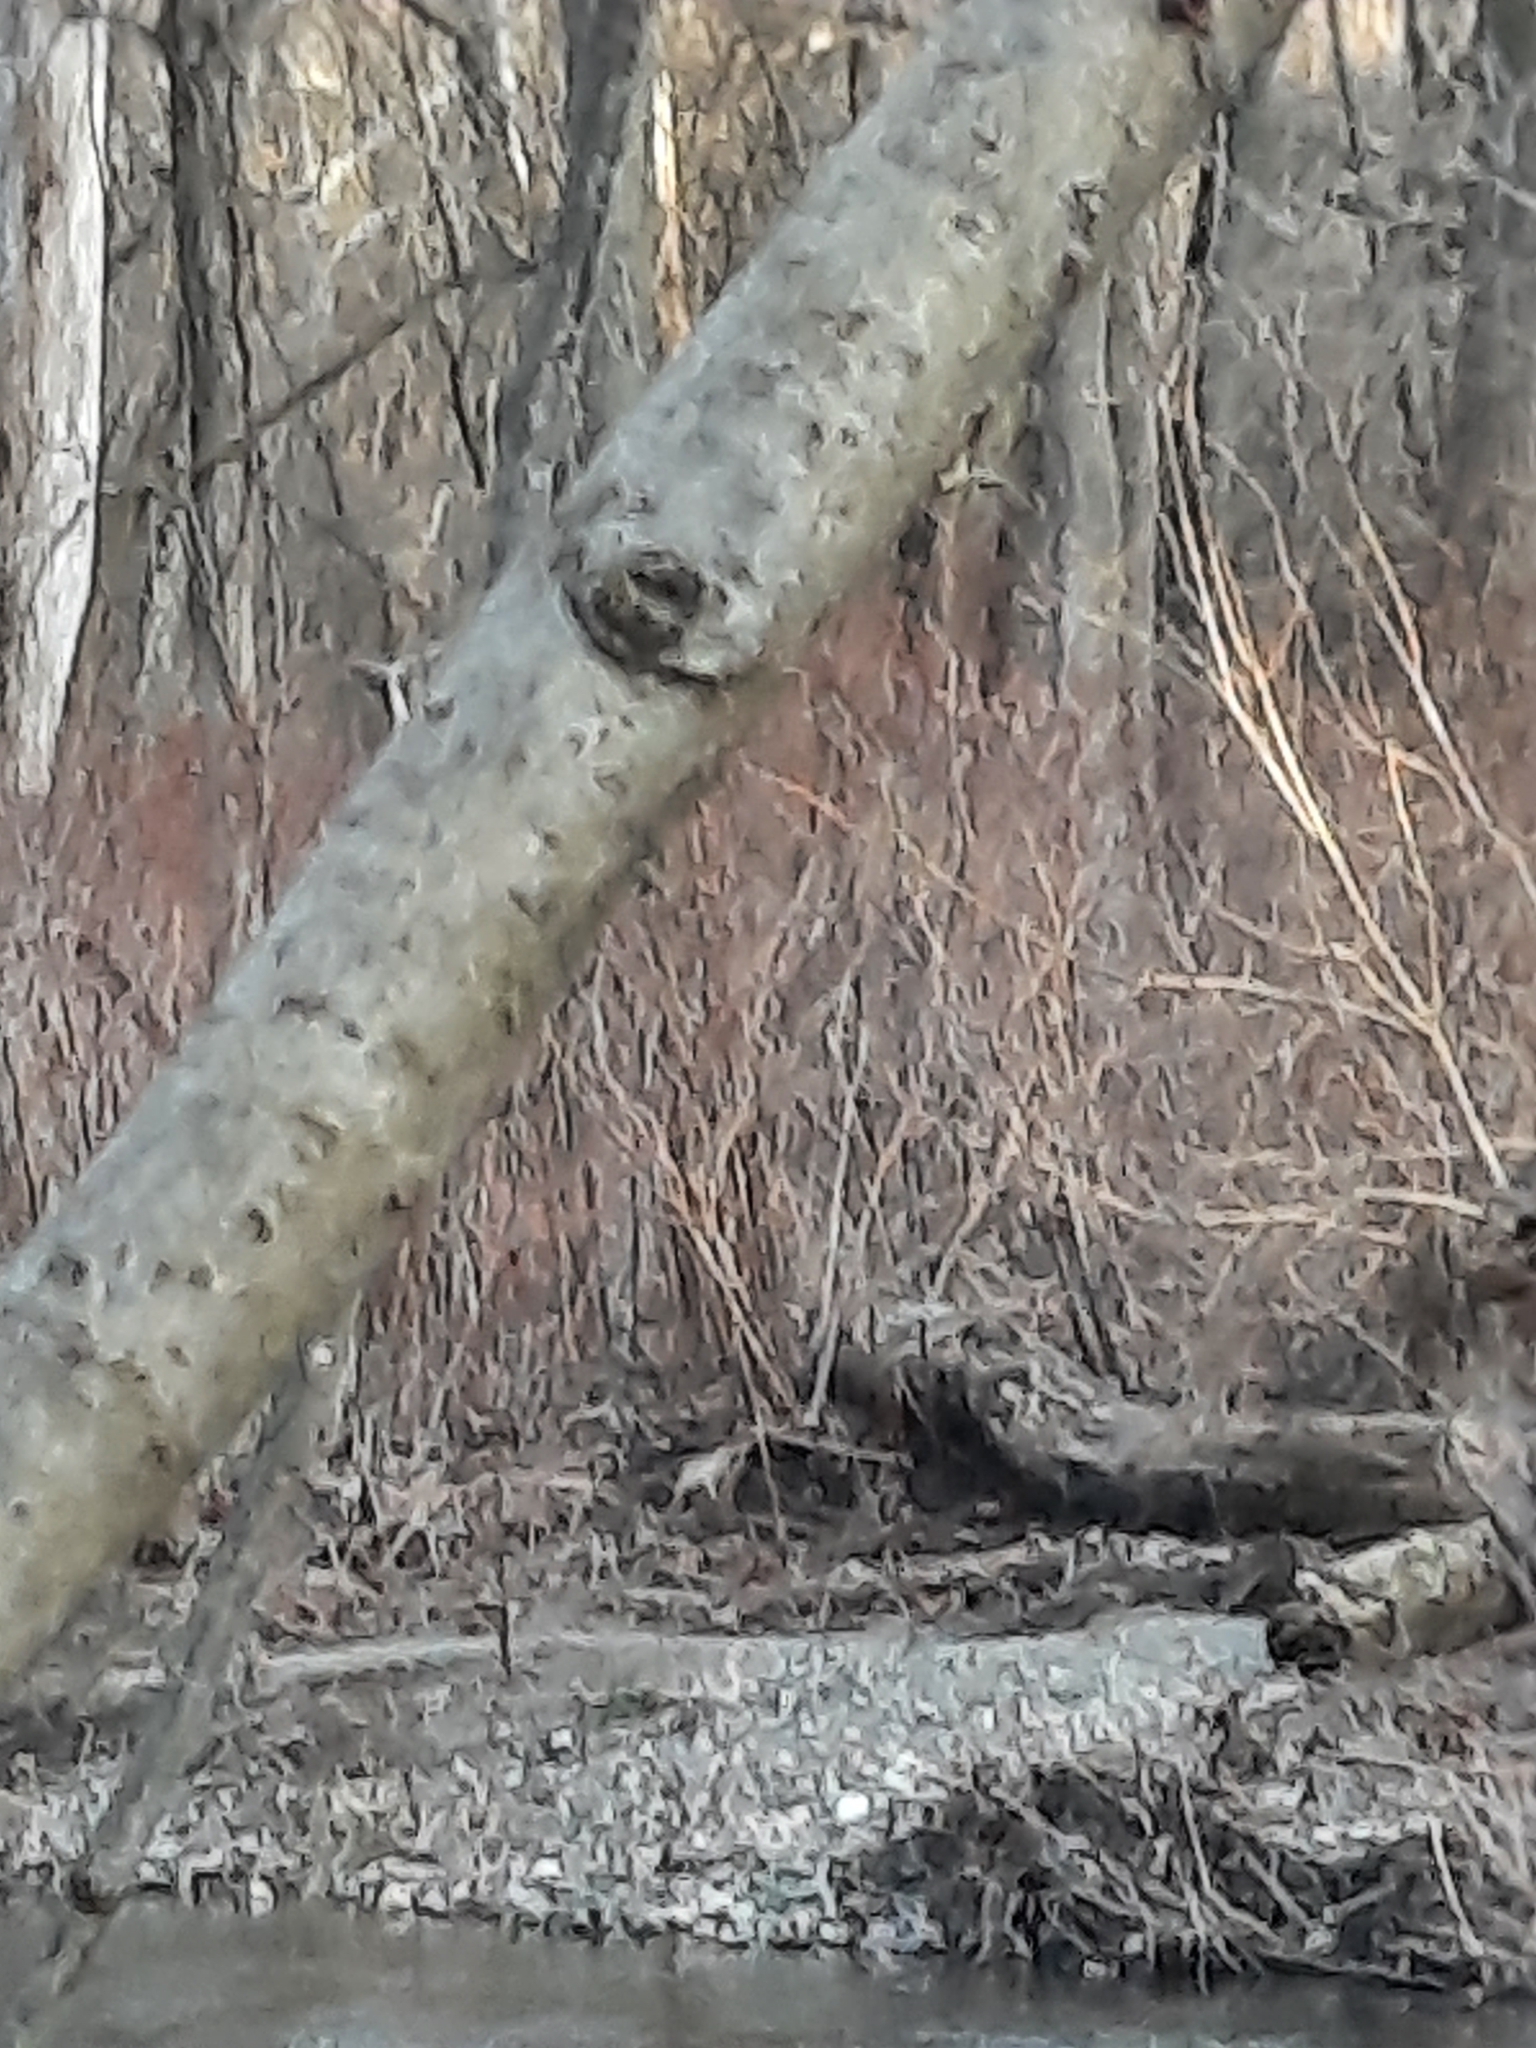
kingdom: Plantae
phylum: Tracheophyta
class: Magnoliopsida
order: Malvales
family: Malvaceae
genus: Tilia
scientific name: Tilia americana
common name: Basswood
